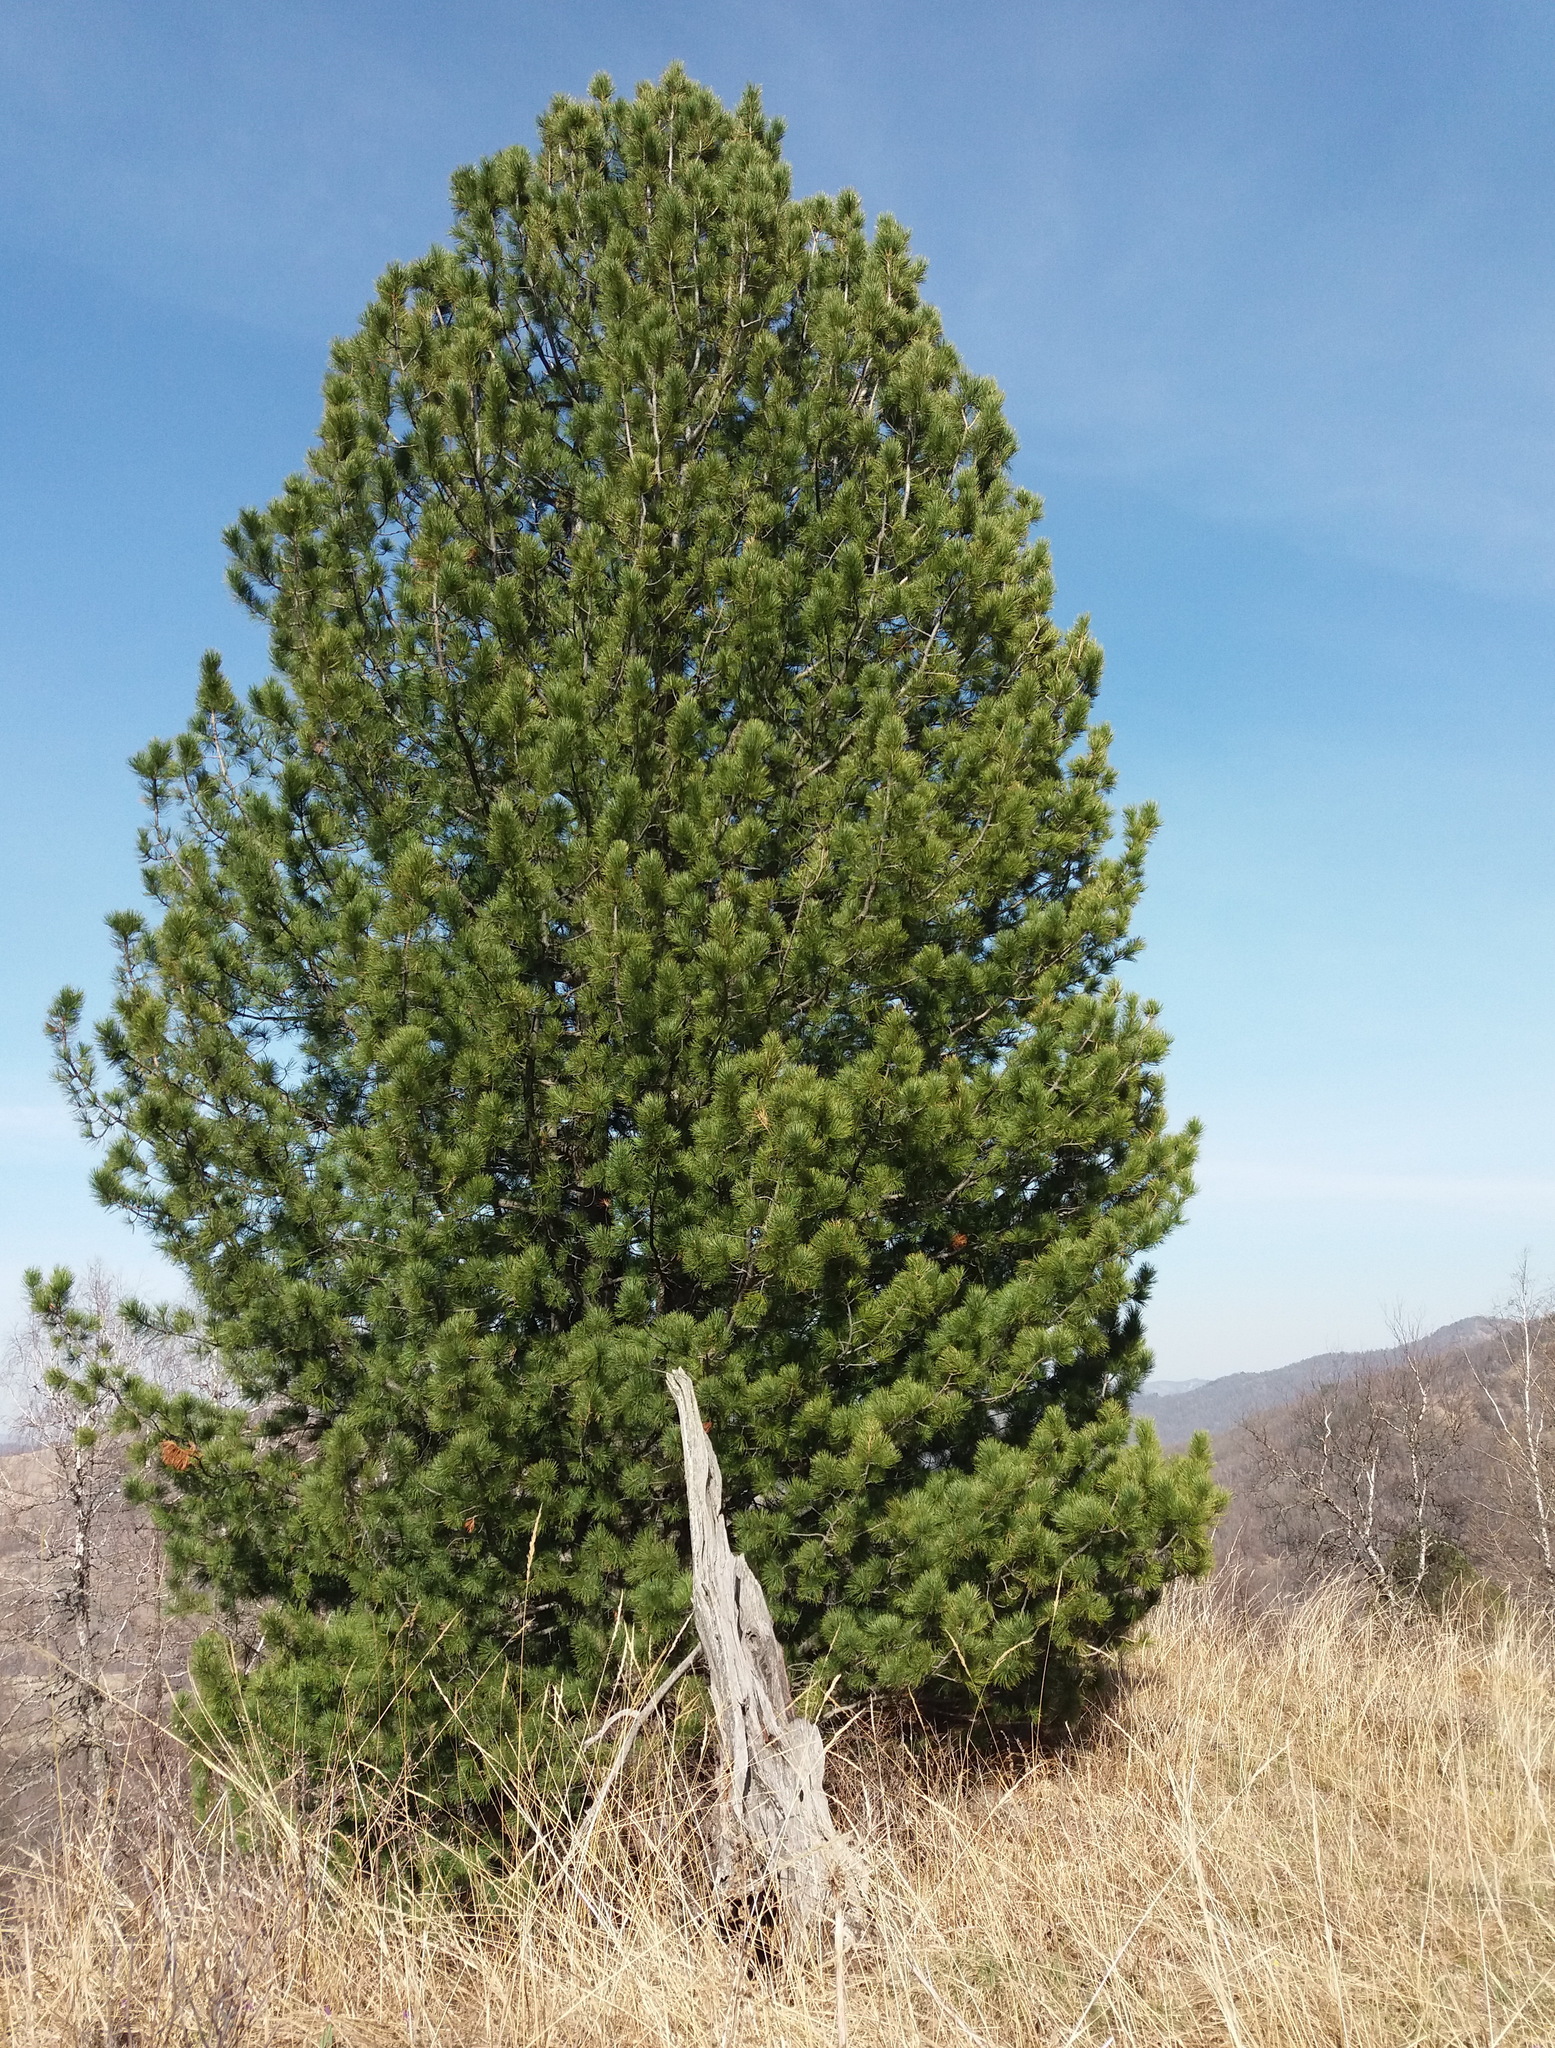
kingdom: Plantae
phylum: Tracheophyta
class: Pinopsida
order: Pinales
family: Pinaceae
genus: Pinus
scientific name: Pinus sibirica
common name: Siberian pine
